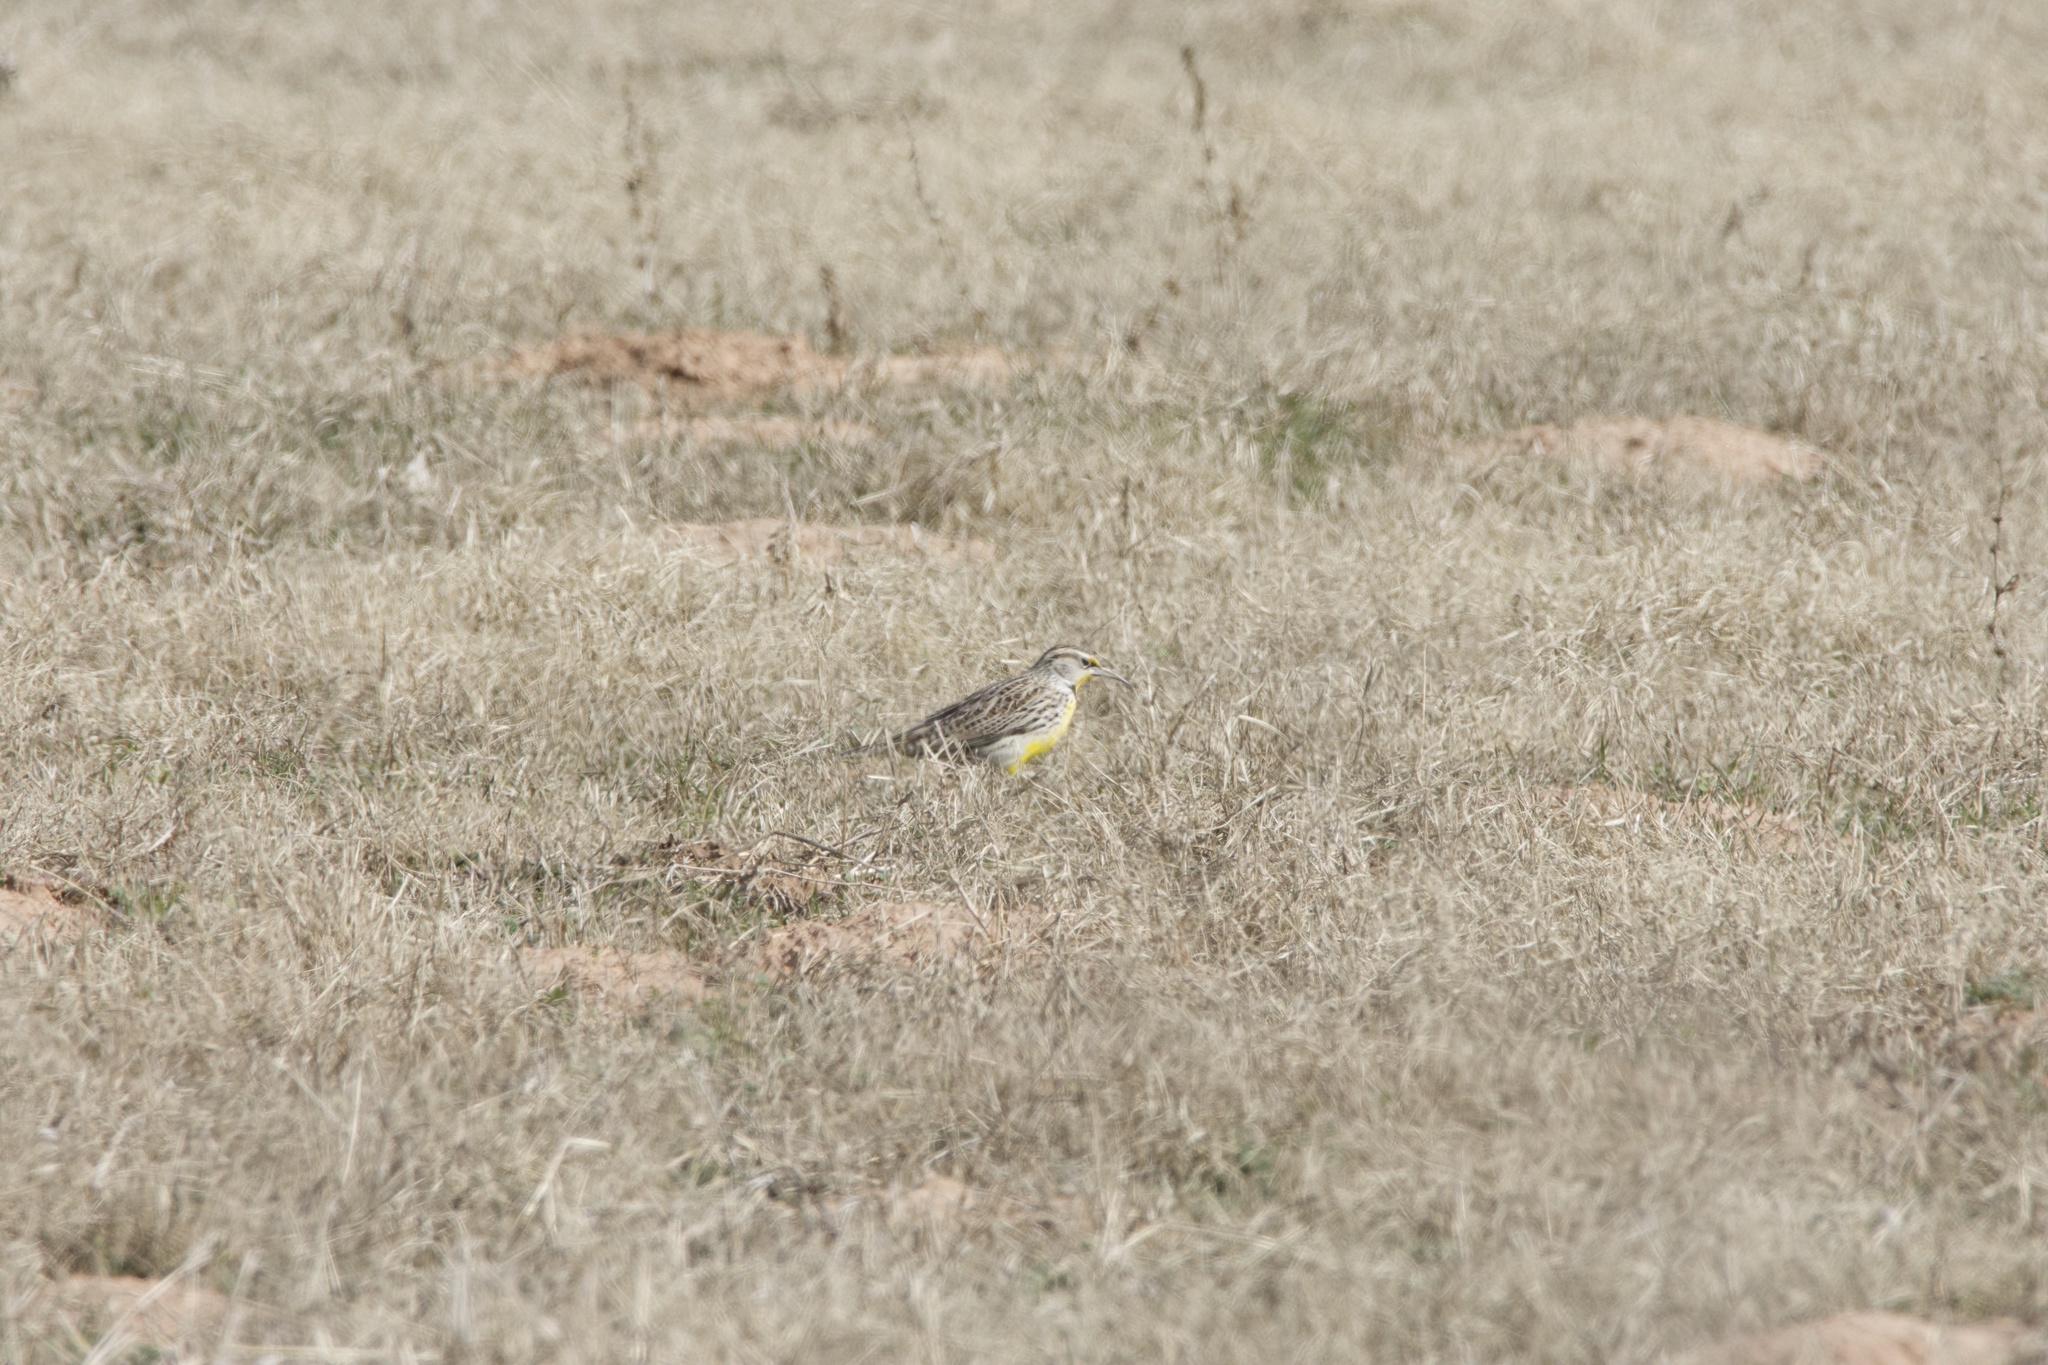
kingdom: Animalia
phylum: Chordata
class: Aves
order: Passeriformes
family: Icteridae
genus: Sturnella
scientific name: Sturnella magna
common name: Eastern meadowlark
